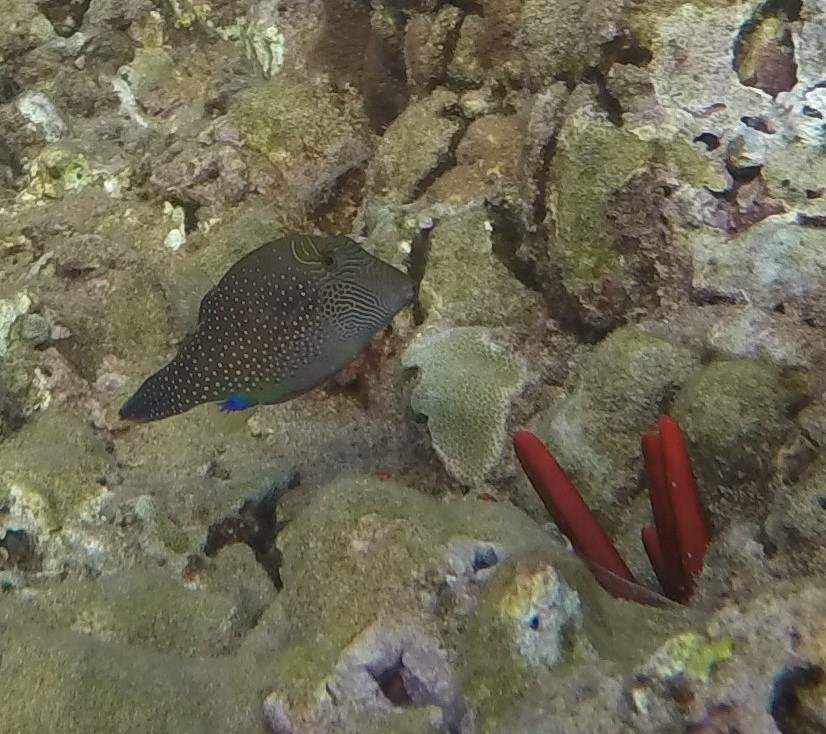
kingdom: Animalia
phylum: Chordata
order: Tetraodontiformes
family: Tetraodontidae
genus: Canthigaster
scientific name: Canthigaster amboinensis
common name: Ambon pufferfish
